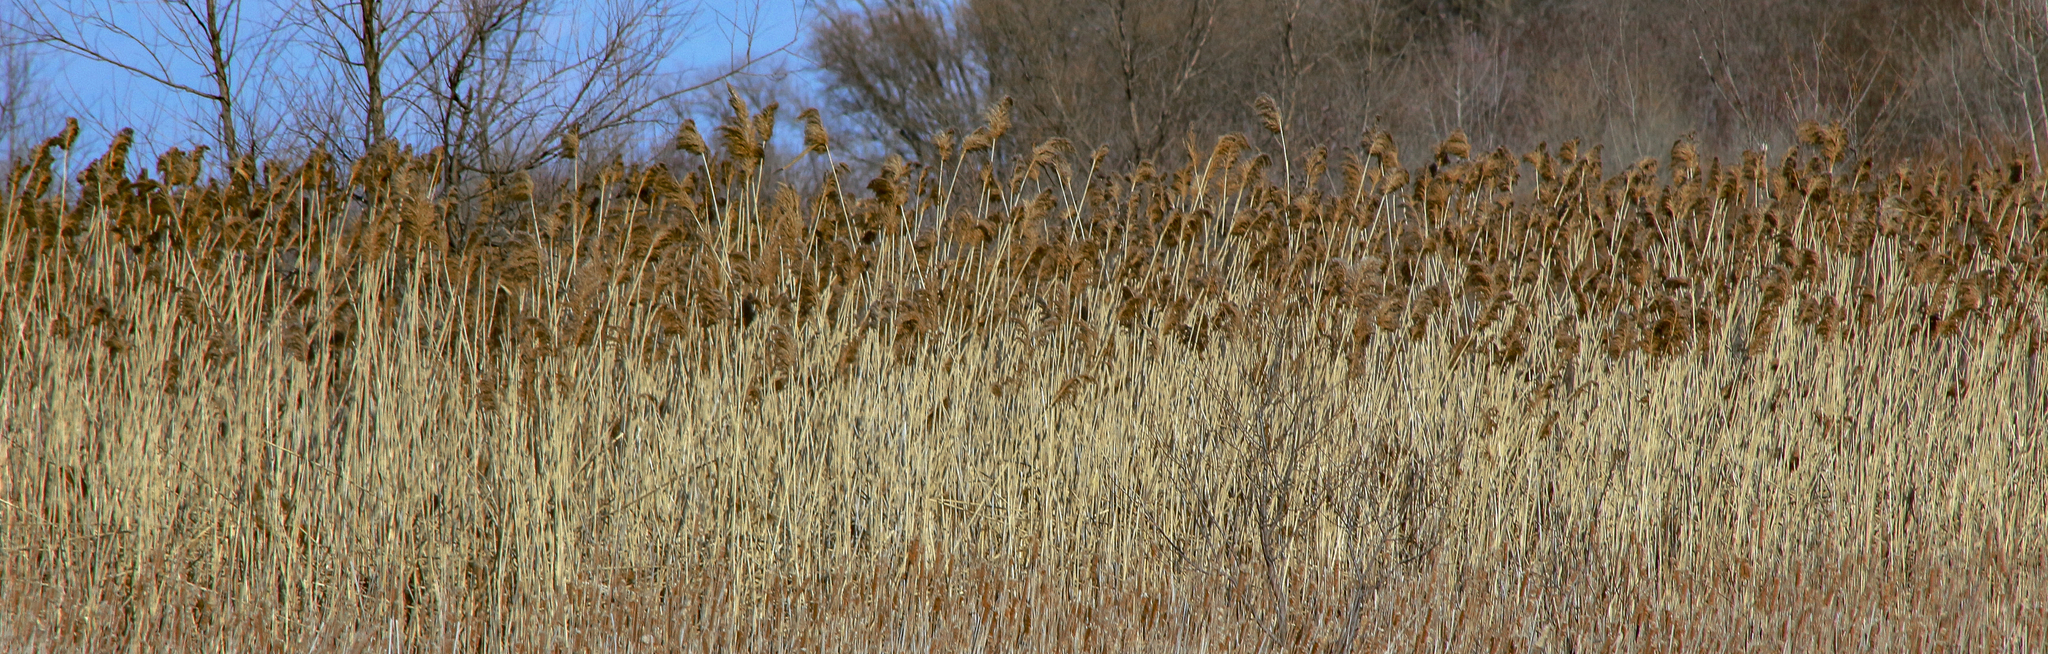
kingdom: Plantae
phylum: Tracheophyta
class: Liliopsida
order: Poales
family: Poaceae
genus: Phragmites
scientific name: Phragmites australis
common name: Common reed
